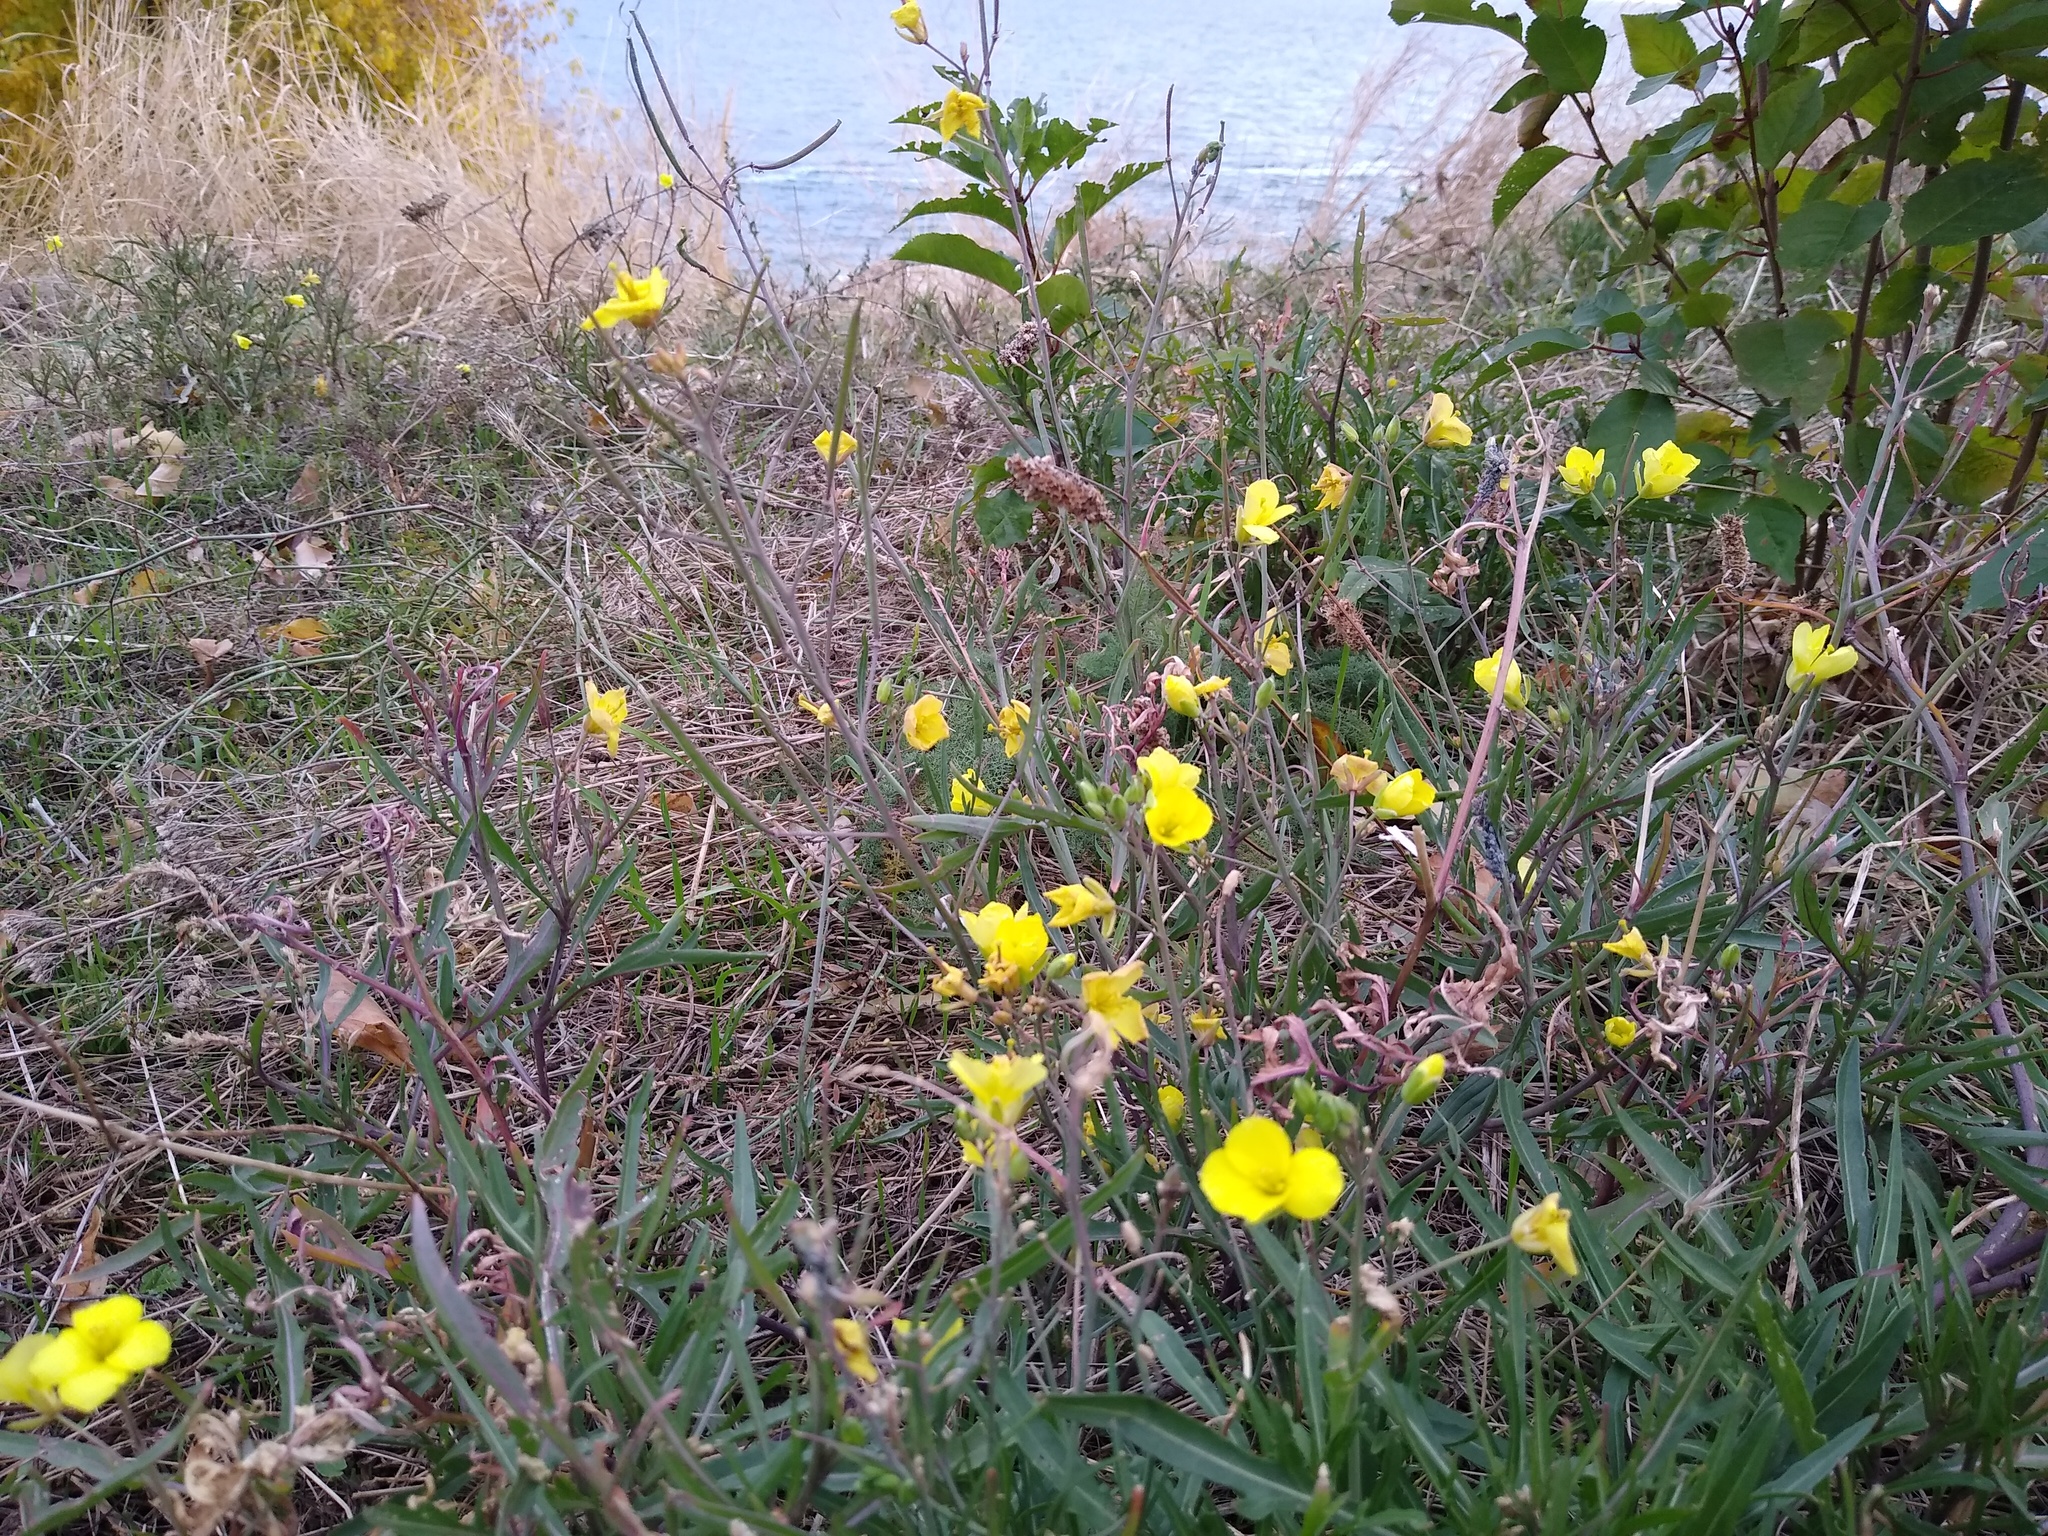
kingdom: Plantae
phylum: Tracheophyta
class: Magnoliopsida
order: Brassicales
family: Brassicaceae
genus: Diplotaxis
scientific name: Diplotaxis tenuifolia
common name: Perennial wall-rocket
